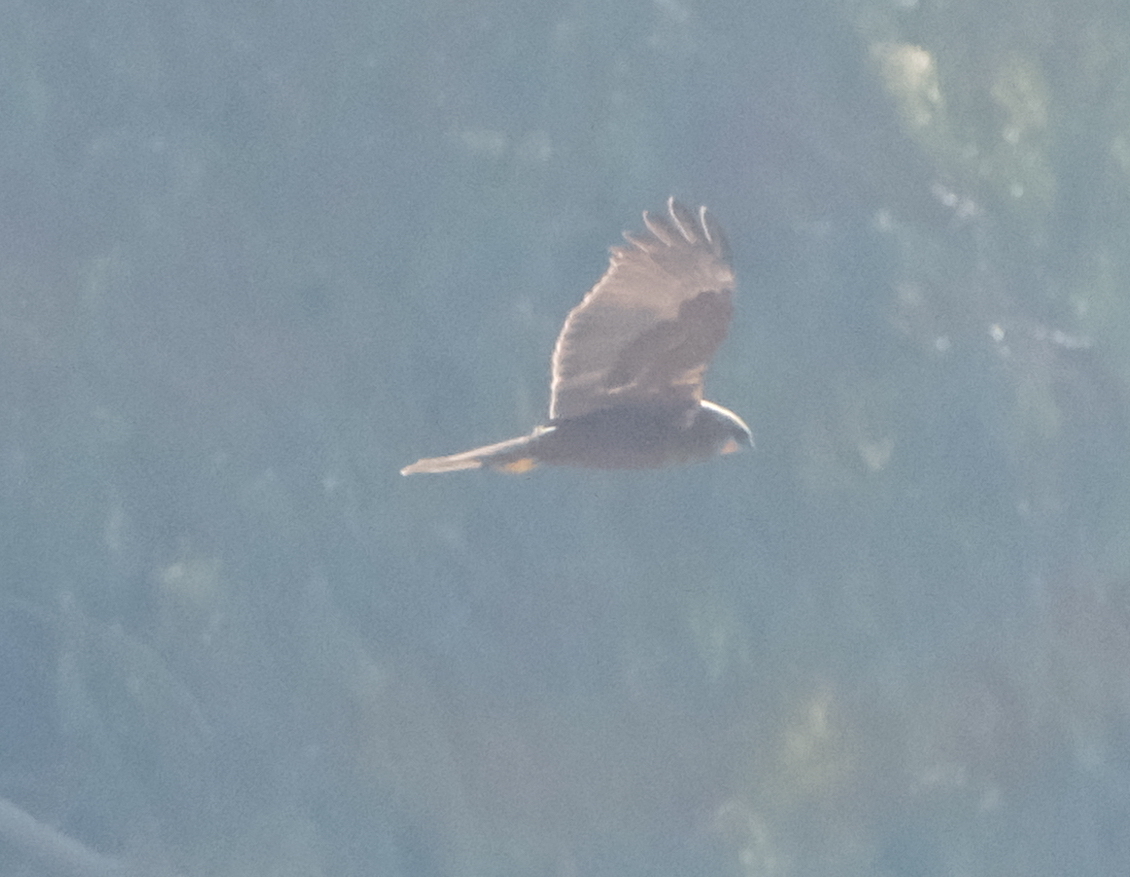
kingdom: Animalia
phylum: Chordata
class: Aves
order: Accipitriformes
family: Accipitridae
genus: Circus
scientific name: Circus aeruginosus
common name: Western marsh harrier
